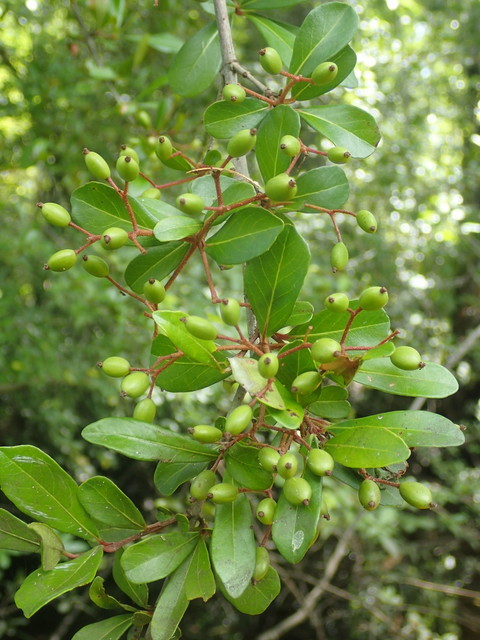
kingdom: Plantae
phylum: Tracheophyta
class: Magnoliopsida
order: Dipsacales
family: Viburnaceae
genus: Viburnum
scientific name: Viburnum obovatum
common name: Walter's viburnum
